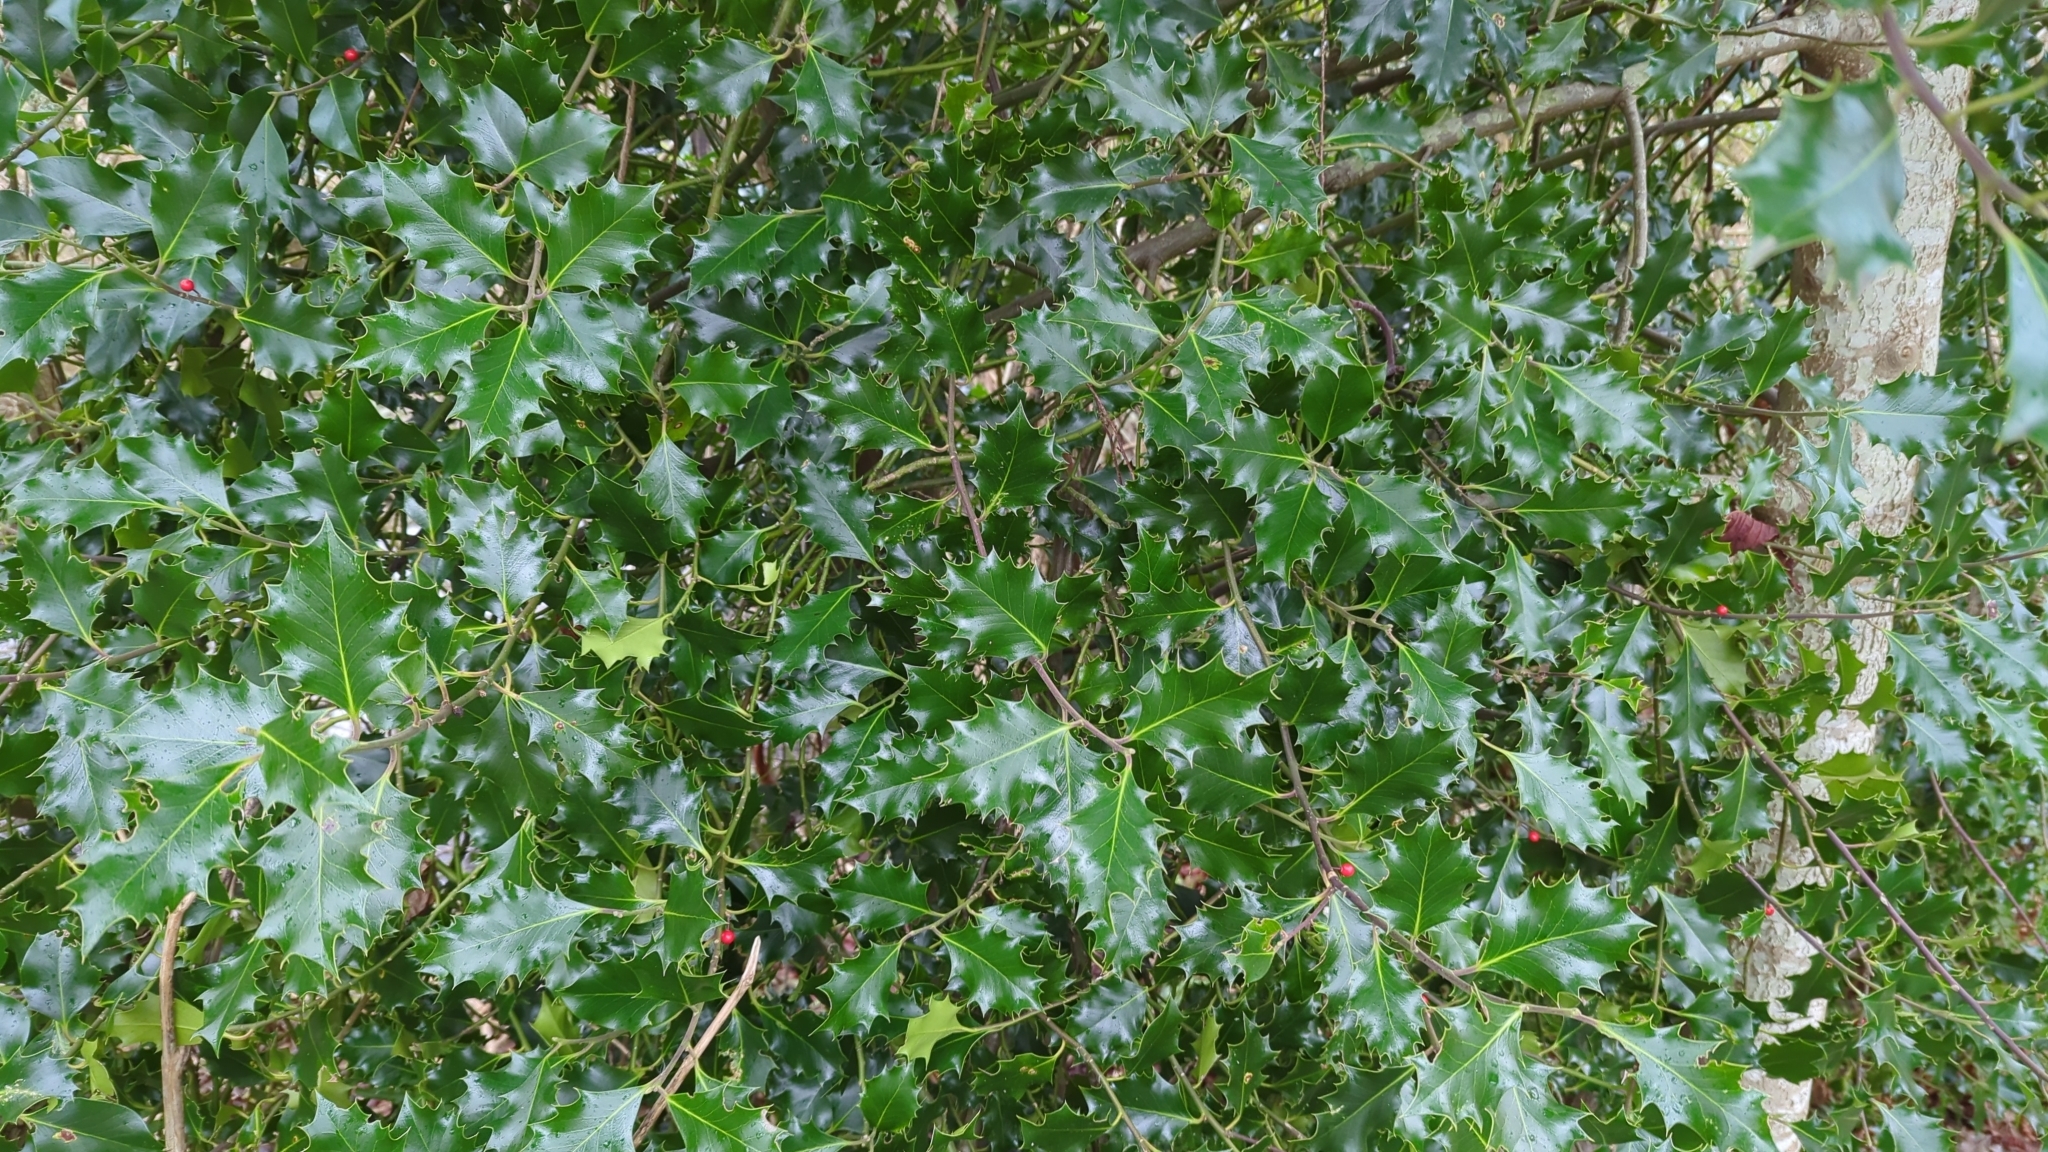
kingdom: Plantae
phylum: Tracheophyta
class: Magnoliopsida
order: Aquifoliales
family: Aquifoliaceae
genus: Ilex
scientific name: Ilex aquifolium
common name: English holly
